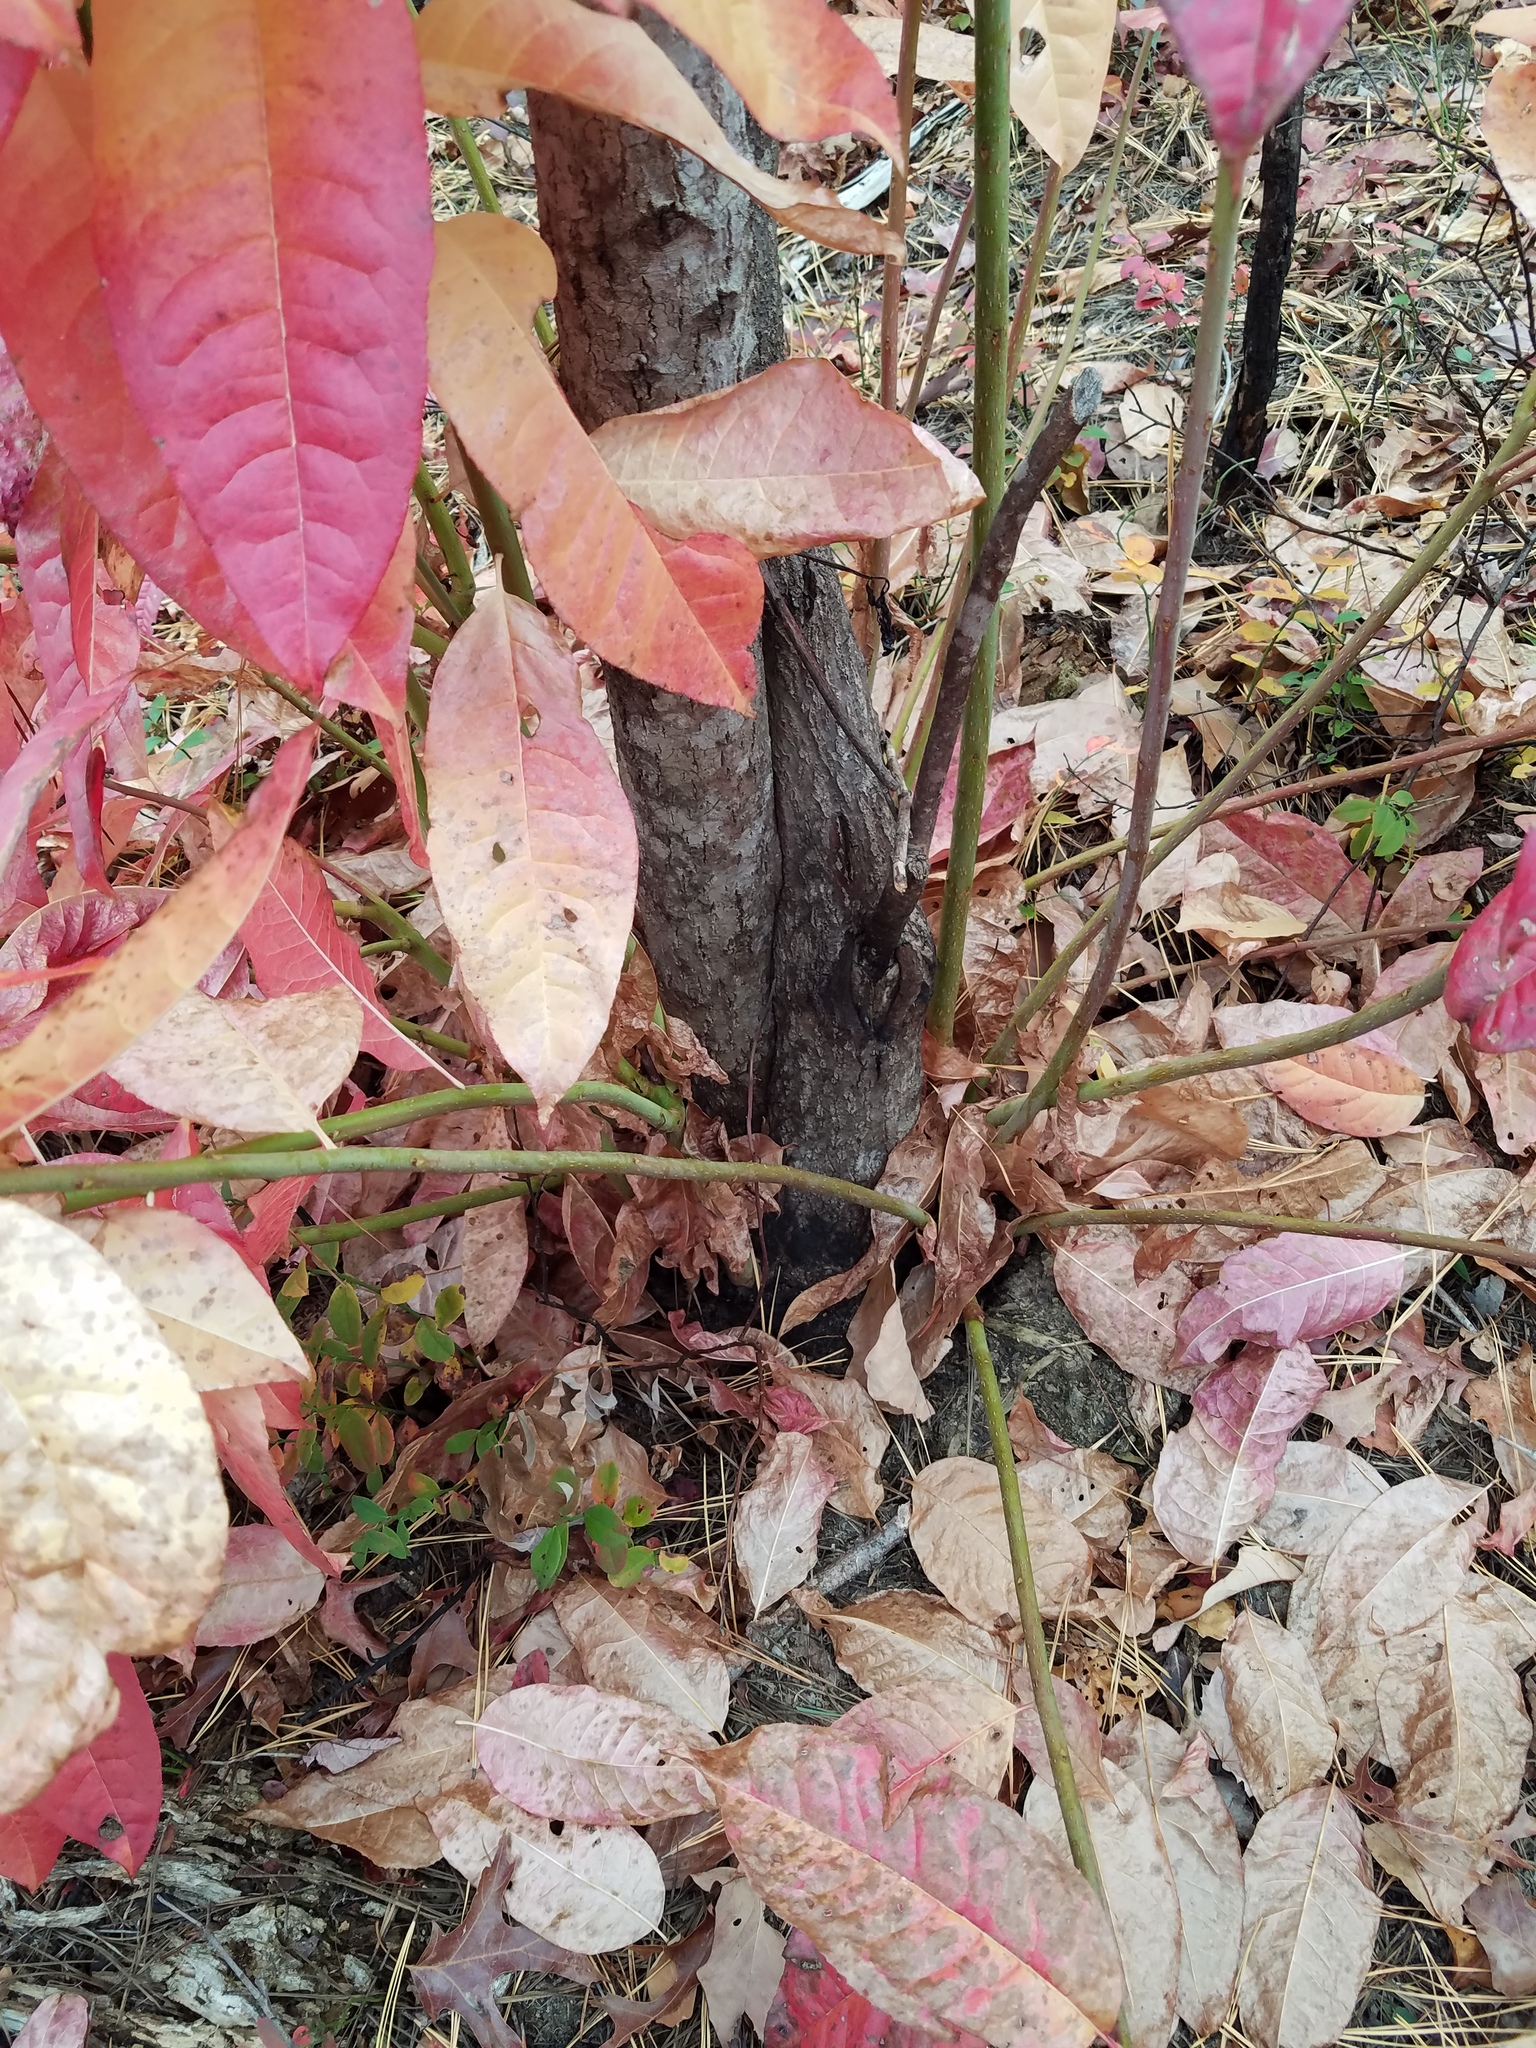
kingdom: Plantae
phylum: Tracheophyta
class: Magnoliopsida
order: Ericales
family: Ericaceae
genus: Oxydendrum
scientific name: Oxydendrum arboreum
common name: Sourwood
